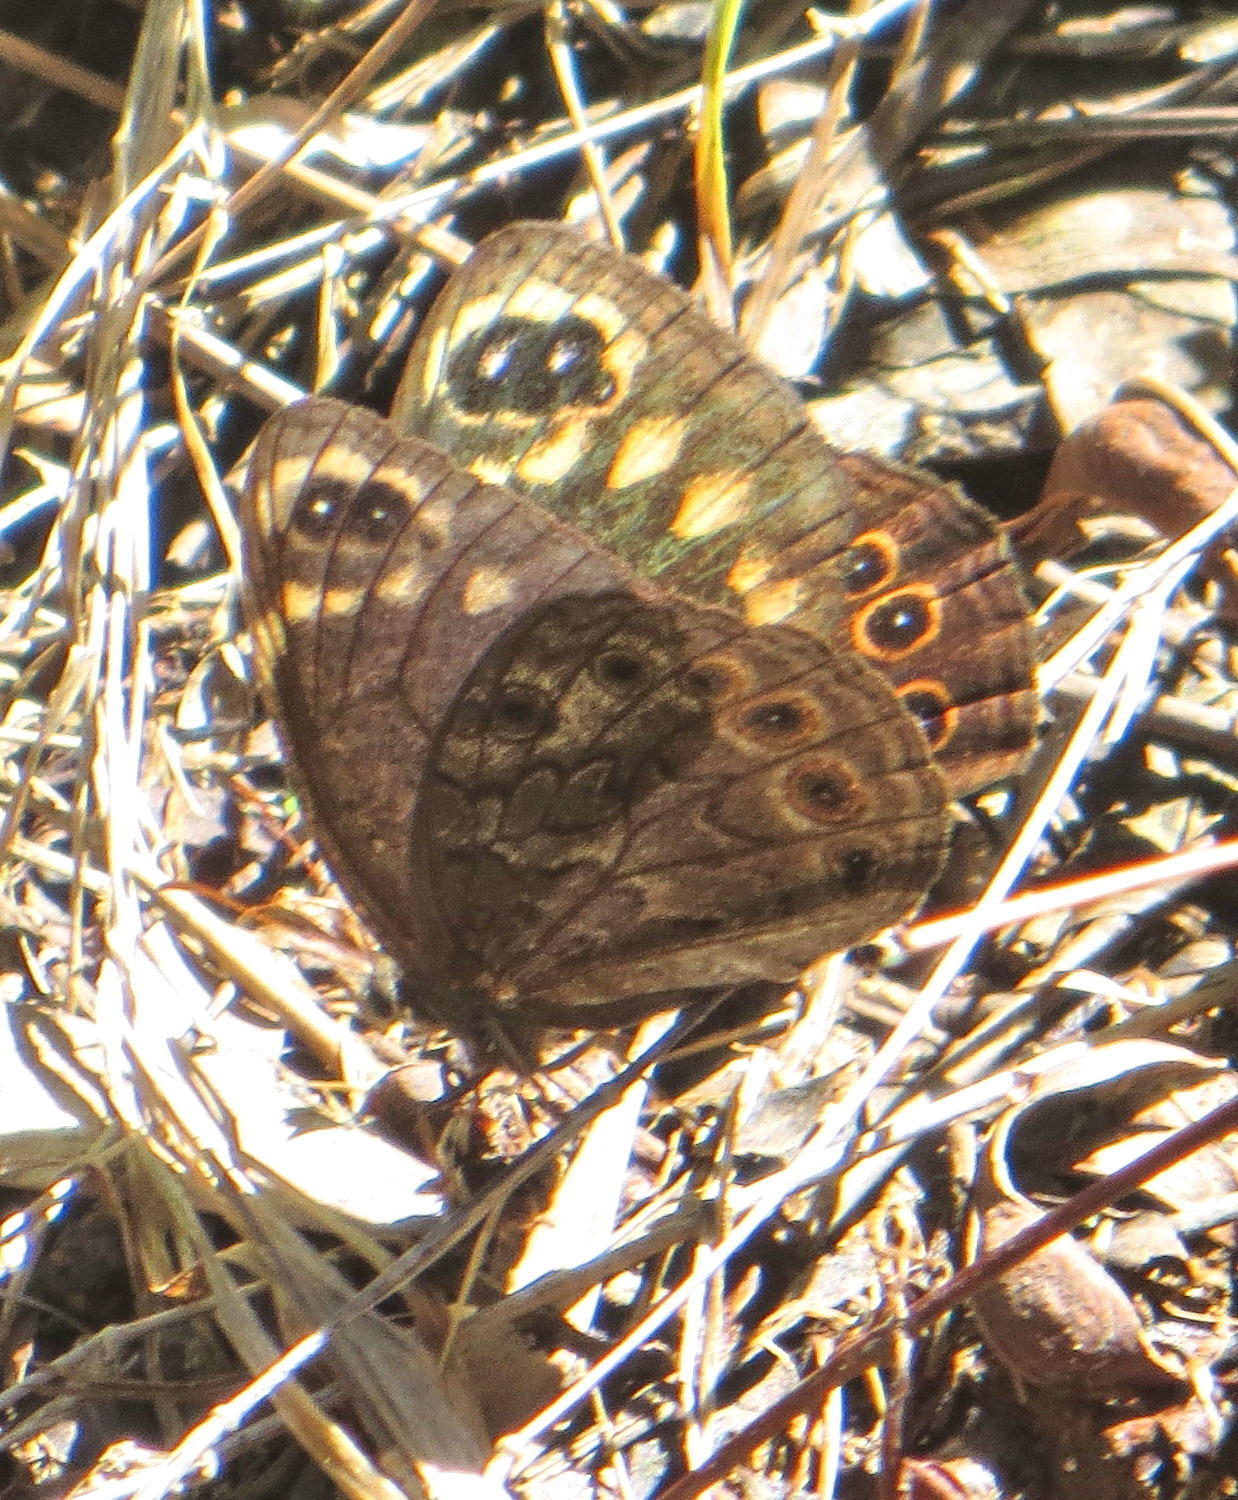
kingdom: Animalia
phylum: Arthropoda
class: Insecta
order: Lepidoptera
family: Nymphalidae
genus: Dira
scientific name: Dira clytus
